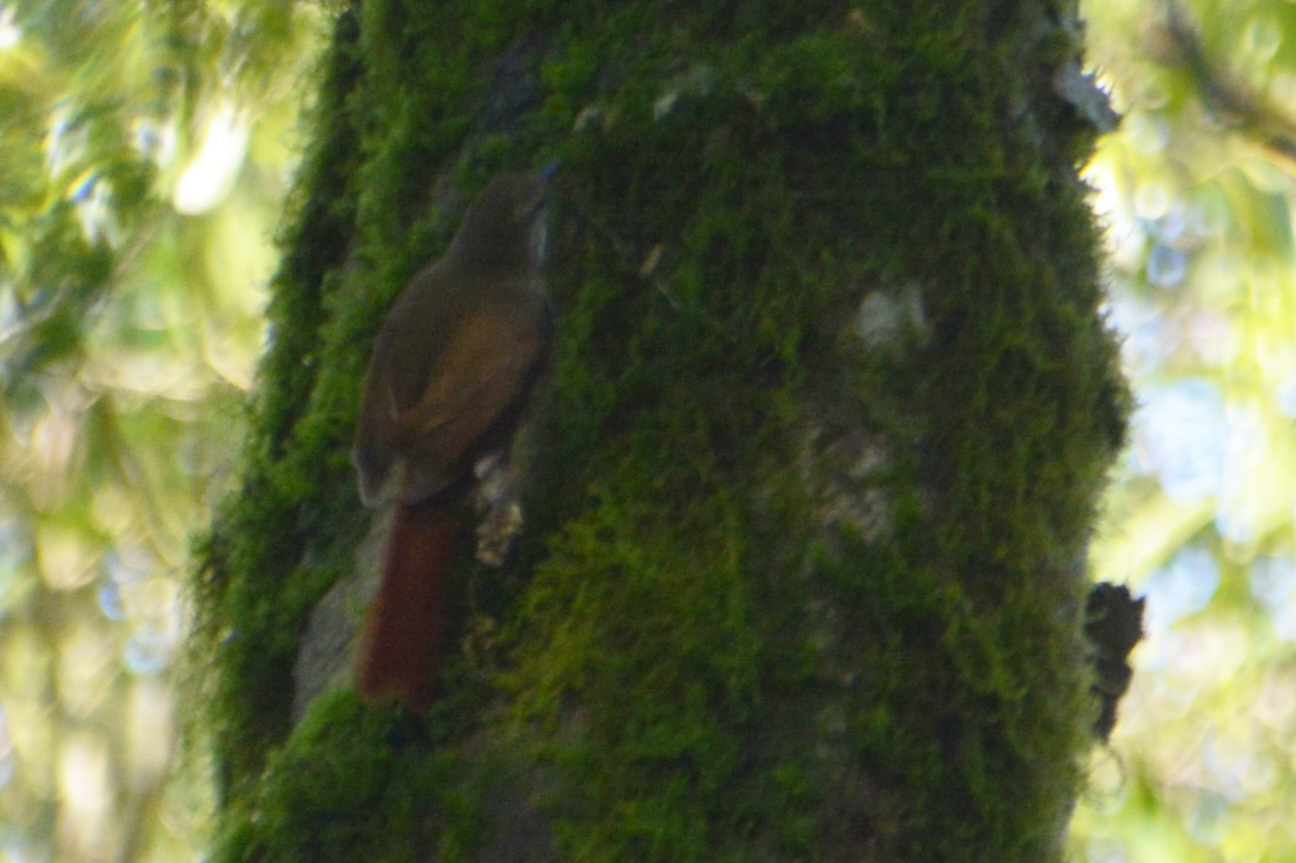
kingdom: Animalia
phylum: Chordata
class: Aves
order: Passeriformes
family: Furnariidae
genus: Syndactyla
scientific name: Syndactyla rufosuperciliata
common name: Buff-browed foliage-gleaner
